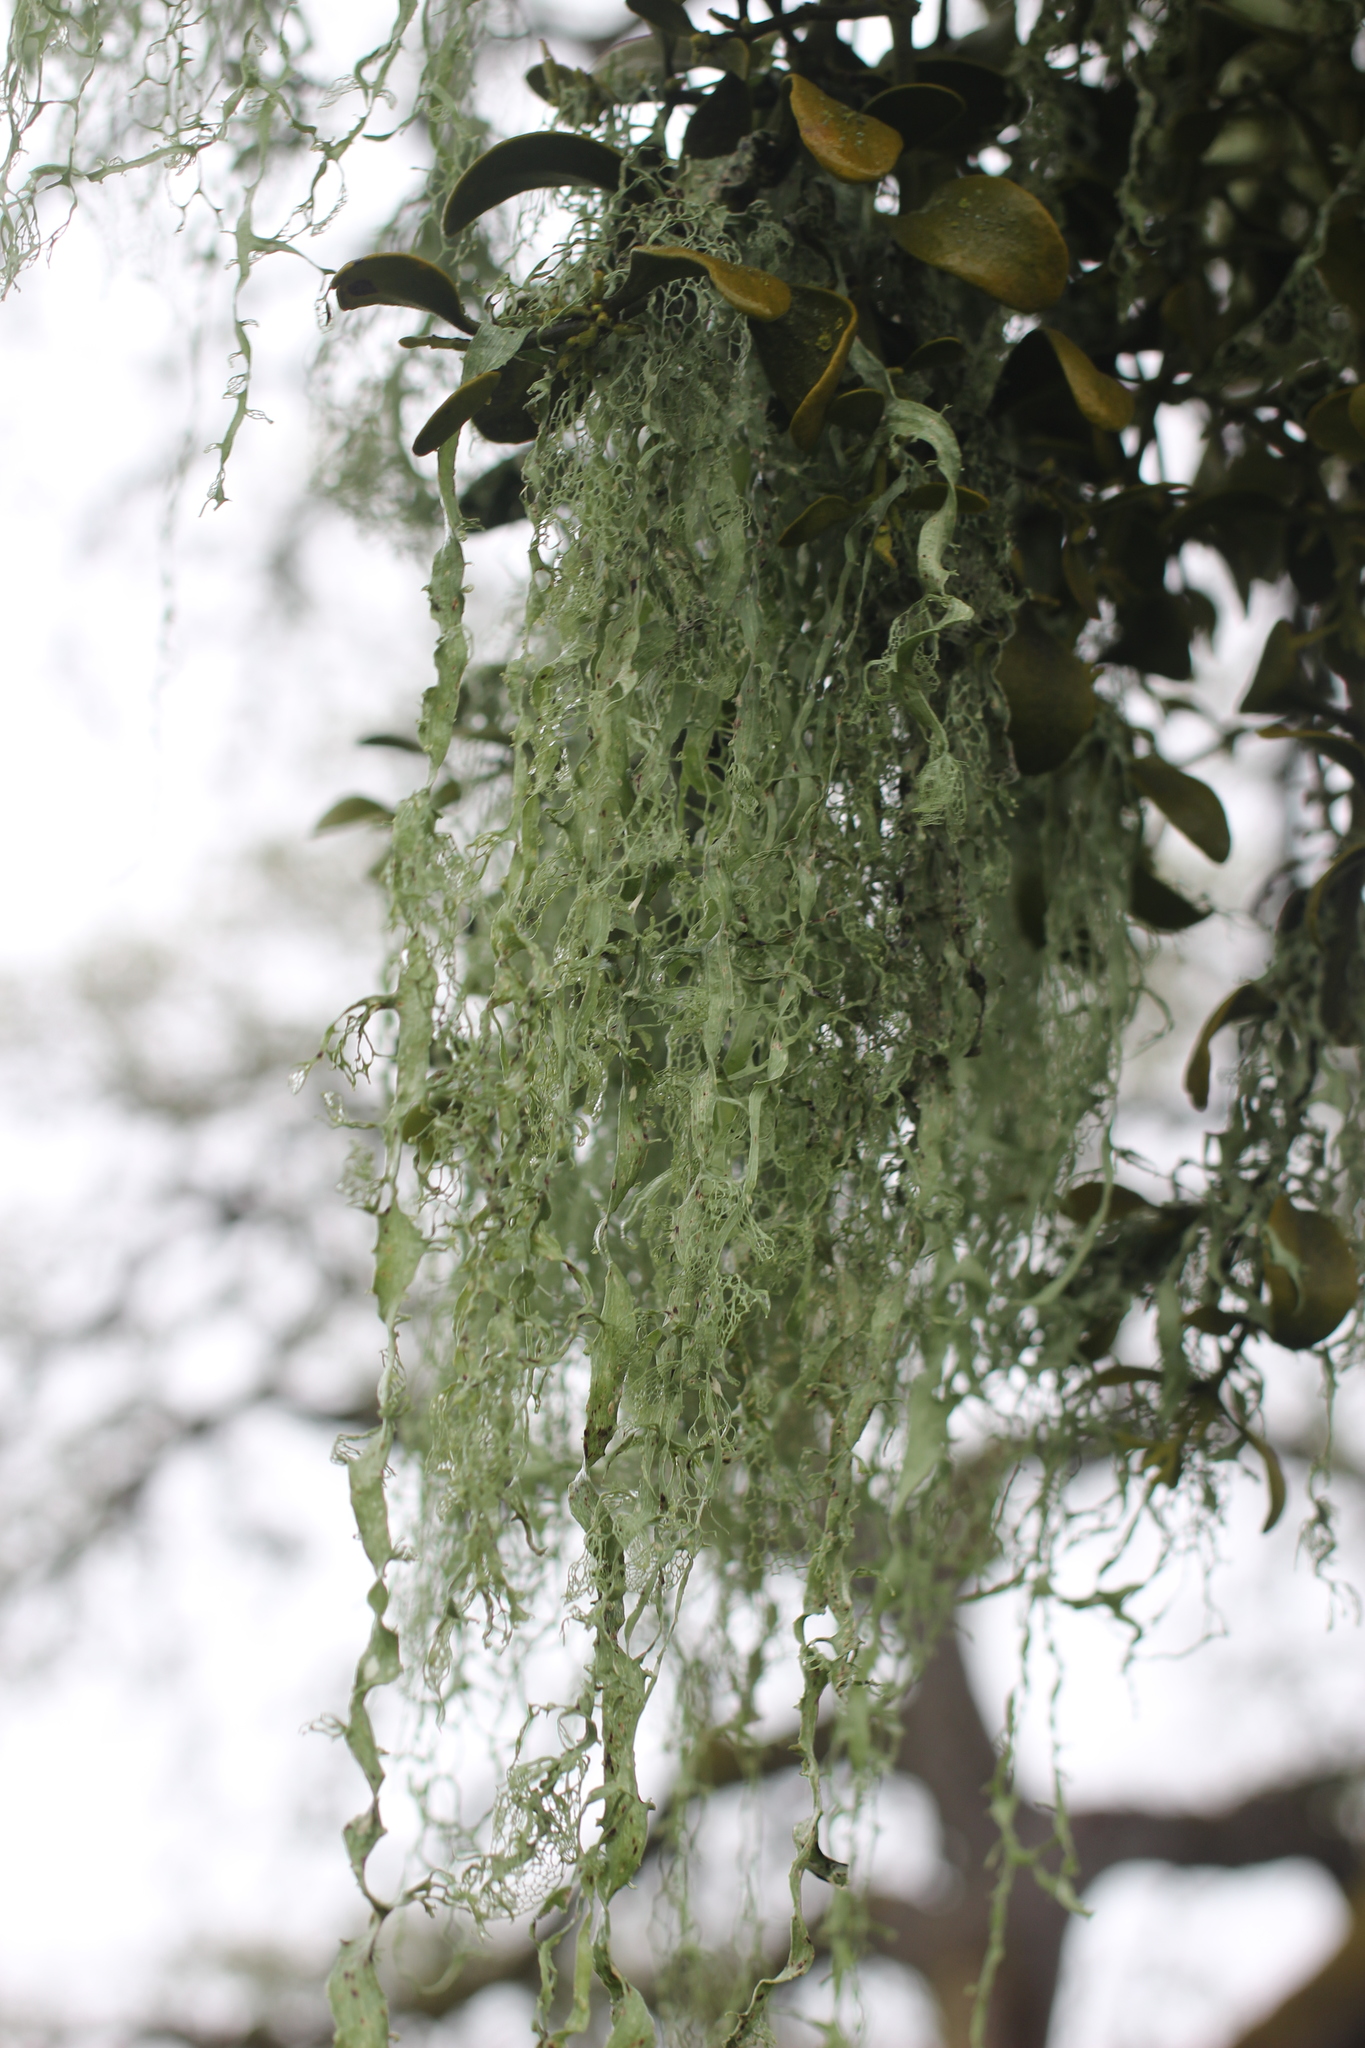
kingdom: Fungi
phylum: Ascomycota
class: Lecanoromycetes
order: Lecanorales
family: Ramalinaceae
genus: Ramalina
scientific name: Ramalina menziesii
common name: Lace lichen
